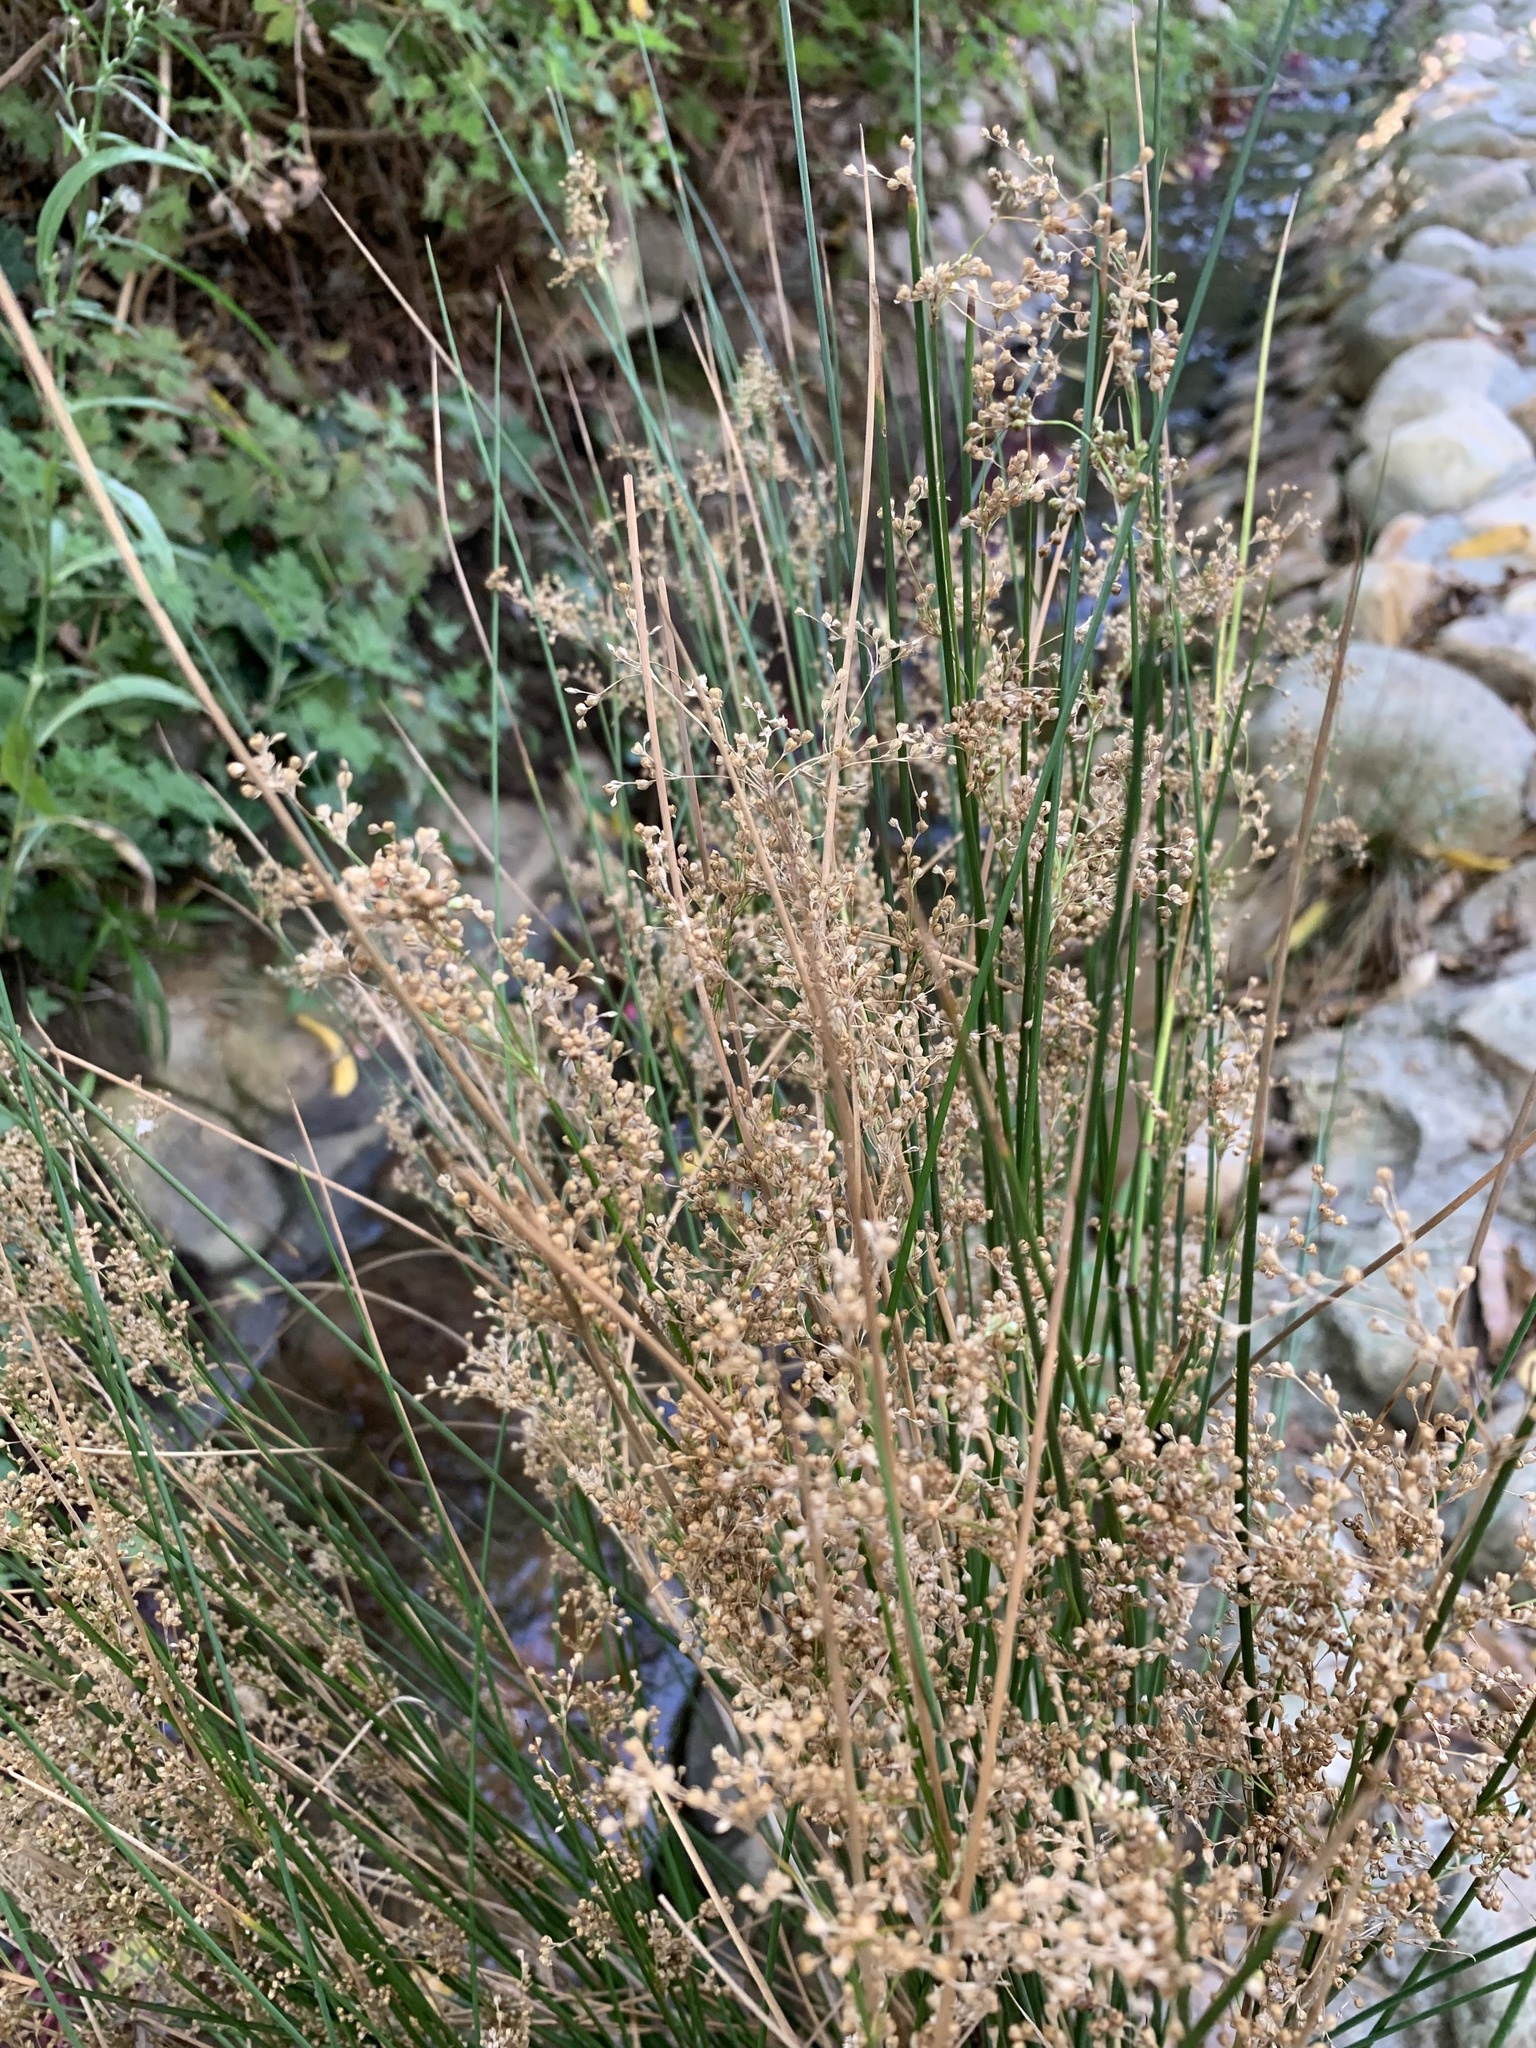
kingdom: Plantae
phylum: Tracheophyta
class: Liliopsida
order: Poales
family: Juncaceae
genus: Juncus
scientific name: Juncus effusus
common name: Soft rush
